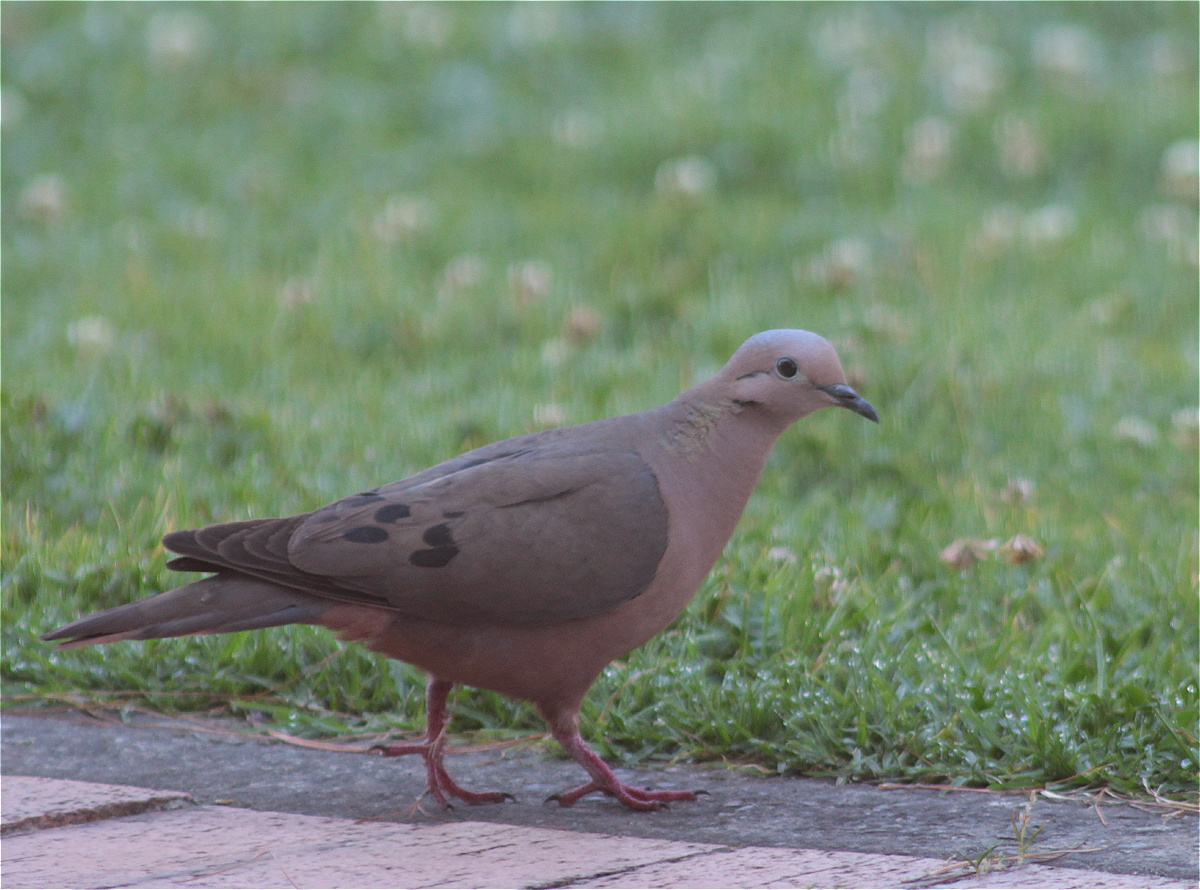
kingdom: Animalia
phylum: Chordata
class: Aves
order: Columbiformes
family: Columbidae
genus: Zenaida
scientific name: Zenaida auriculata
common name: Eared dove
